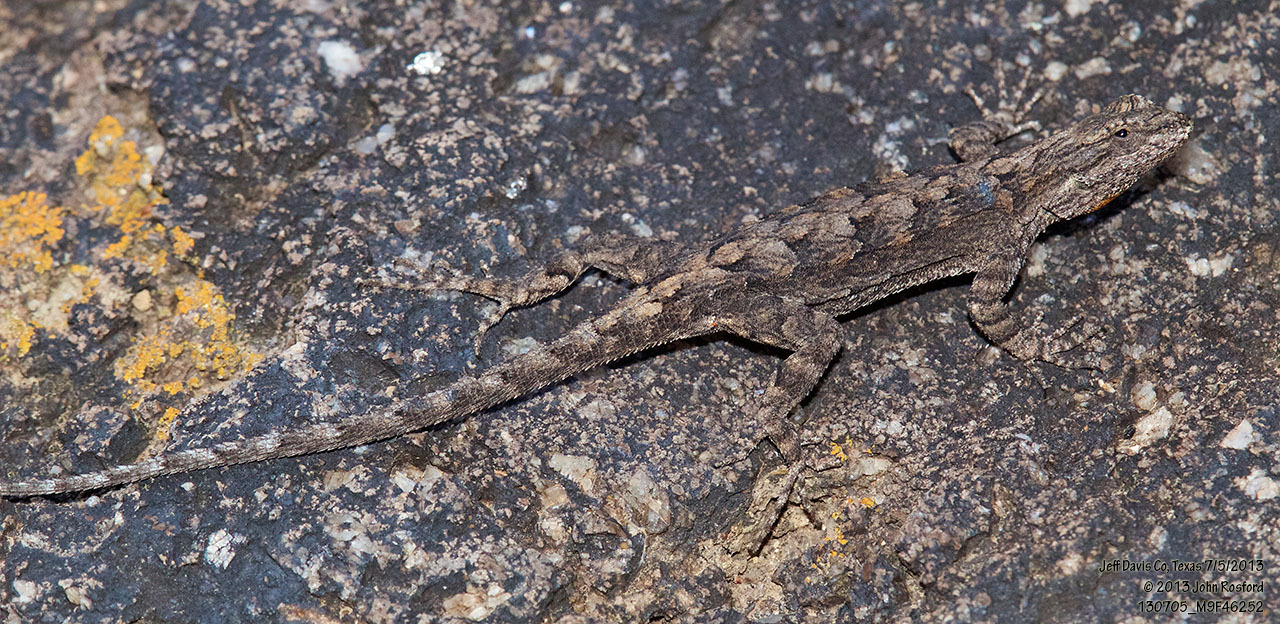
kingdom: Animalia
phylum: Chordata
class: Squamata
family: Phrynosomatidae
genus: Urosaurus
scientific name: Urosaurus ornatus
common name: Ornate tree lizard
